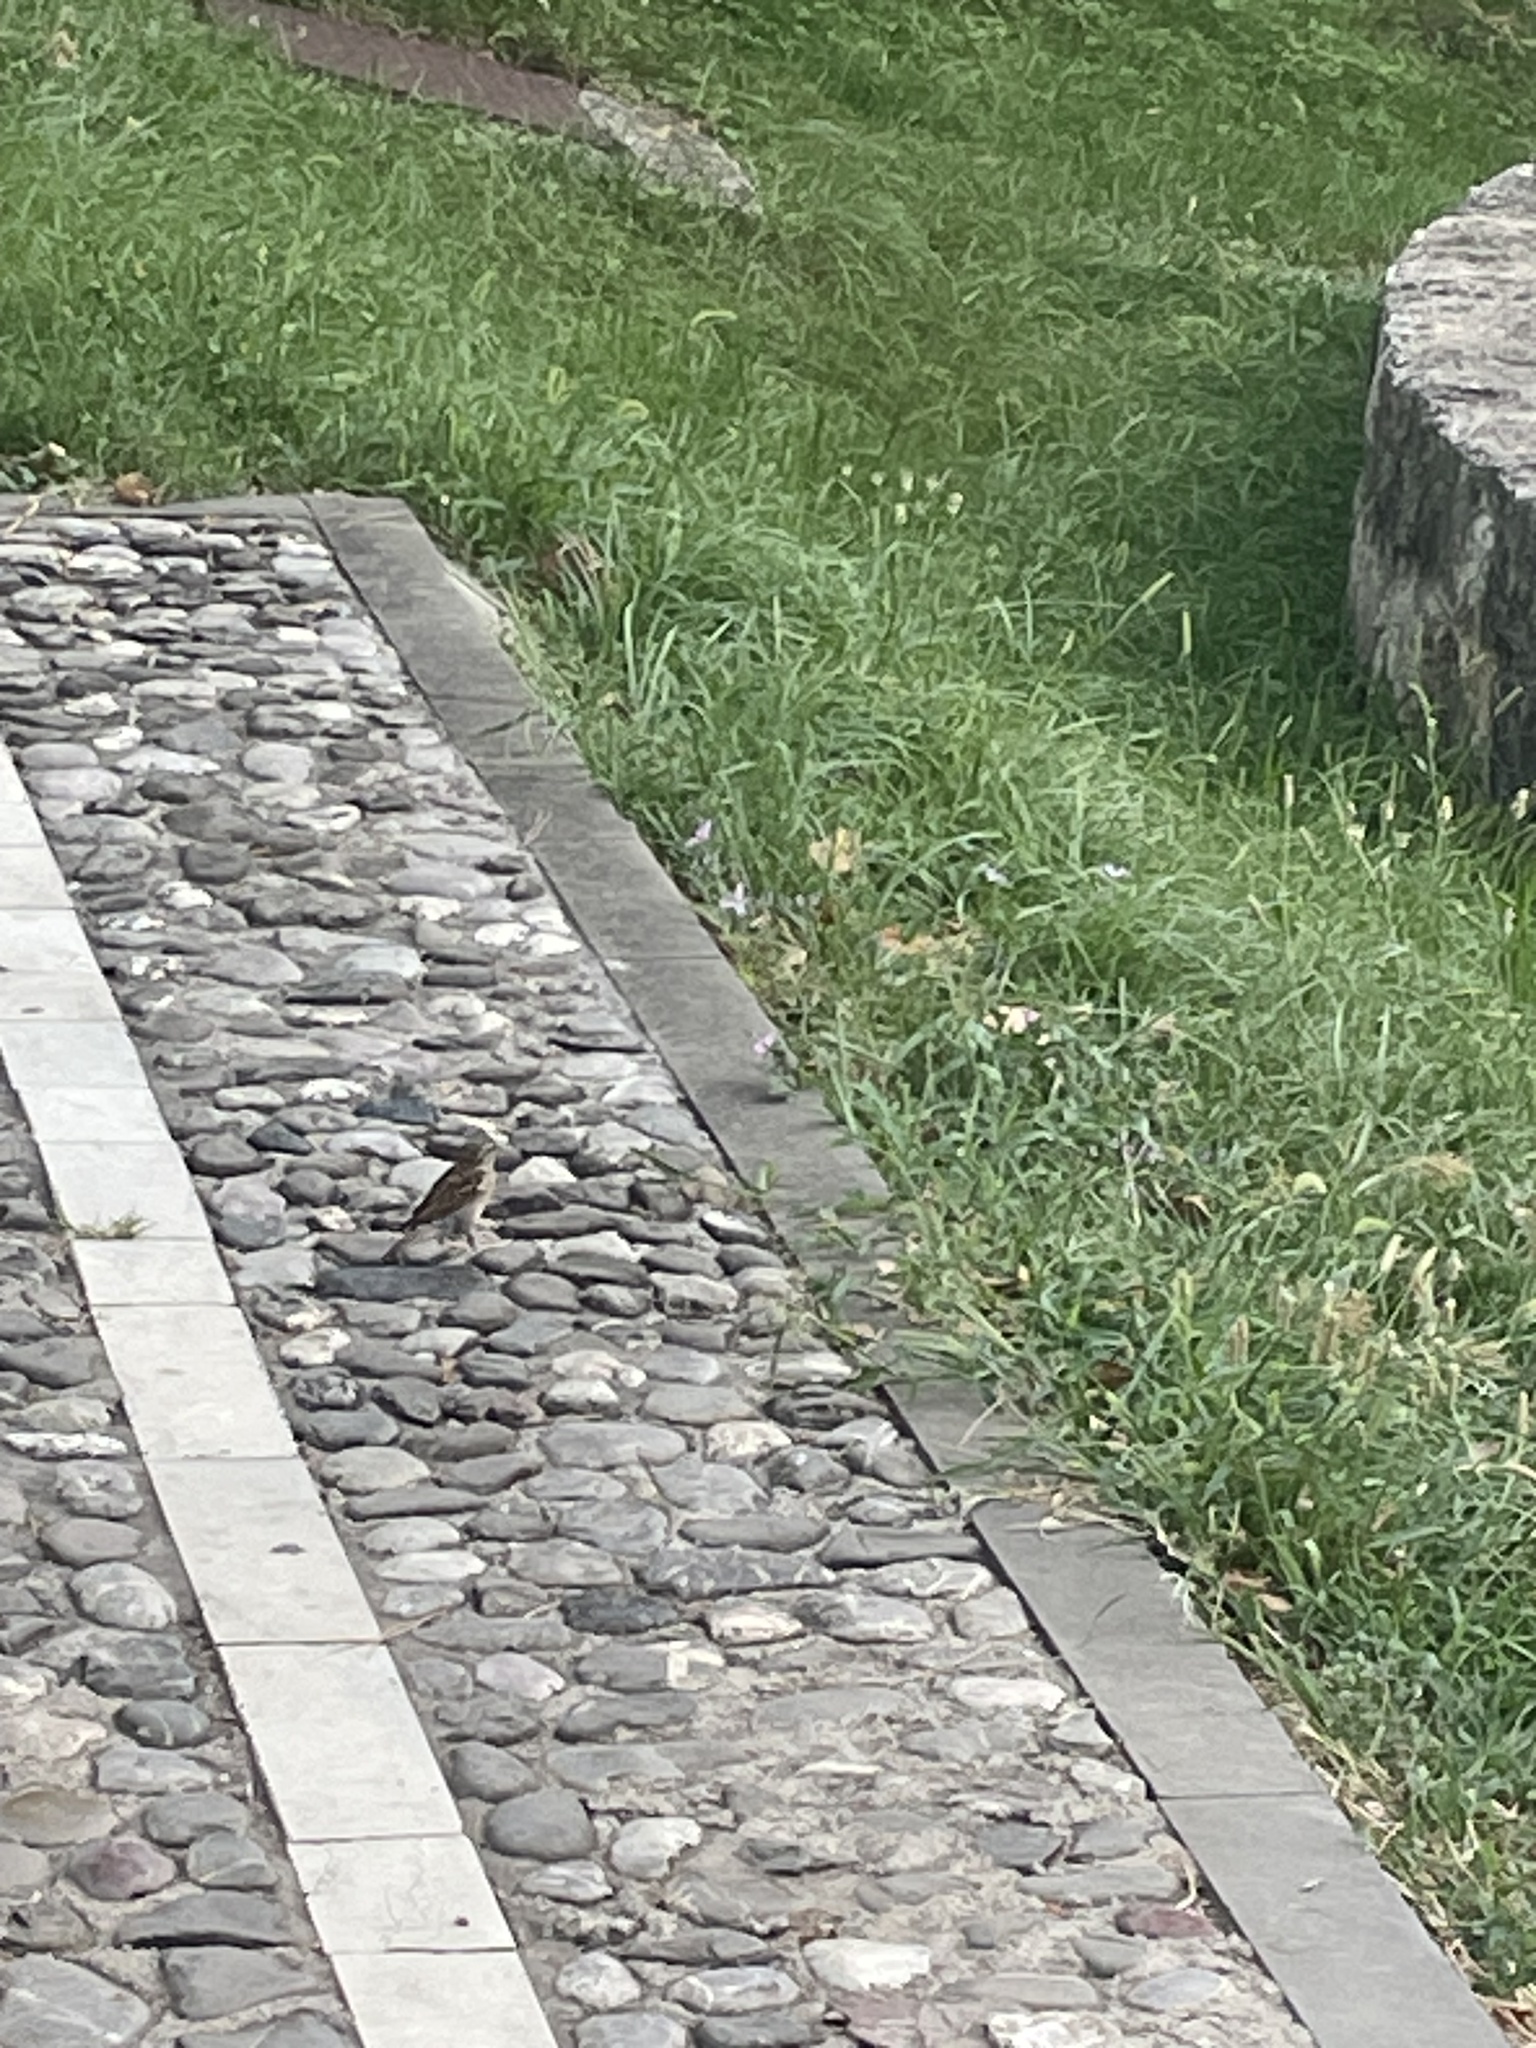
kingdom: Animalia
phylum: Chordata
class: Aves
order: Passeriformes
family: Passeridae
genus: Passer
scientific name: Passer domesticus
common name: House sparrow
